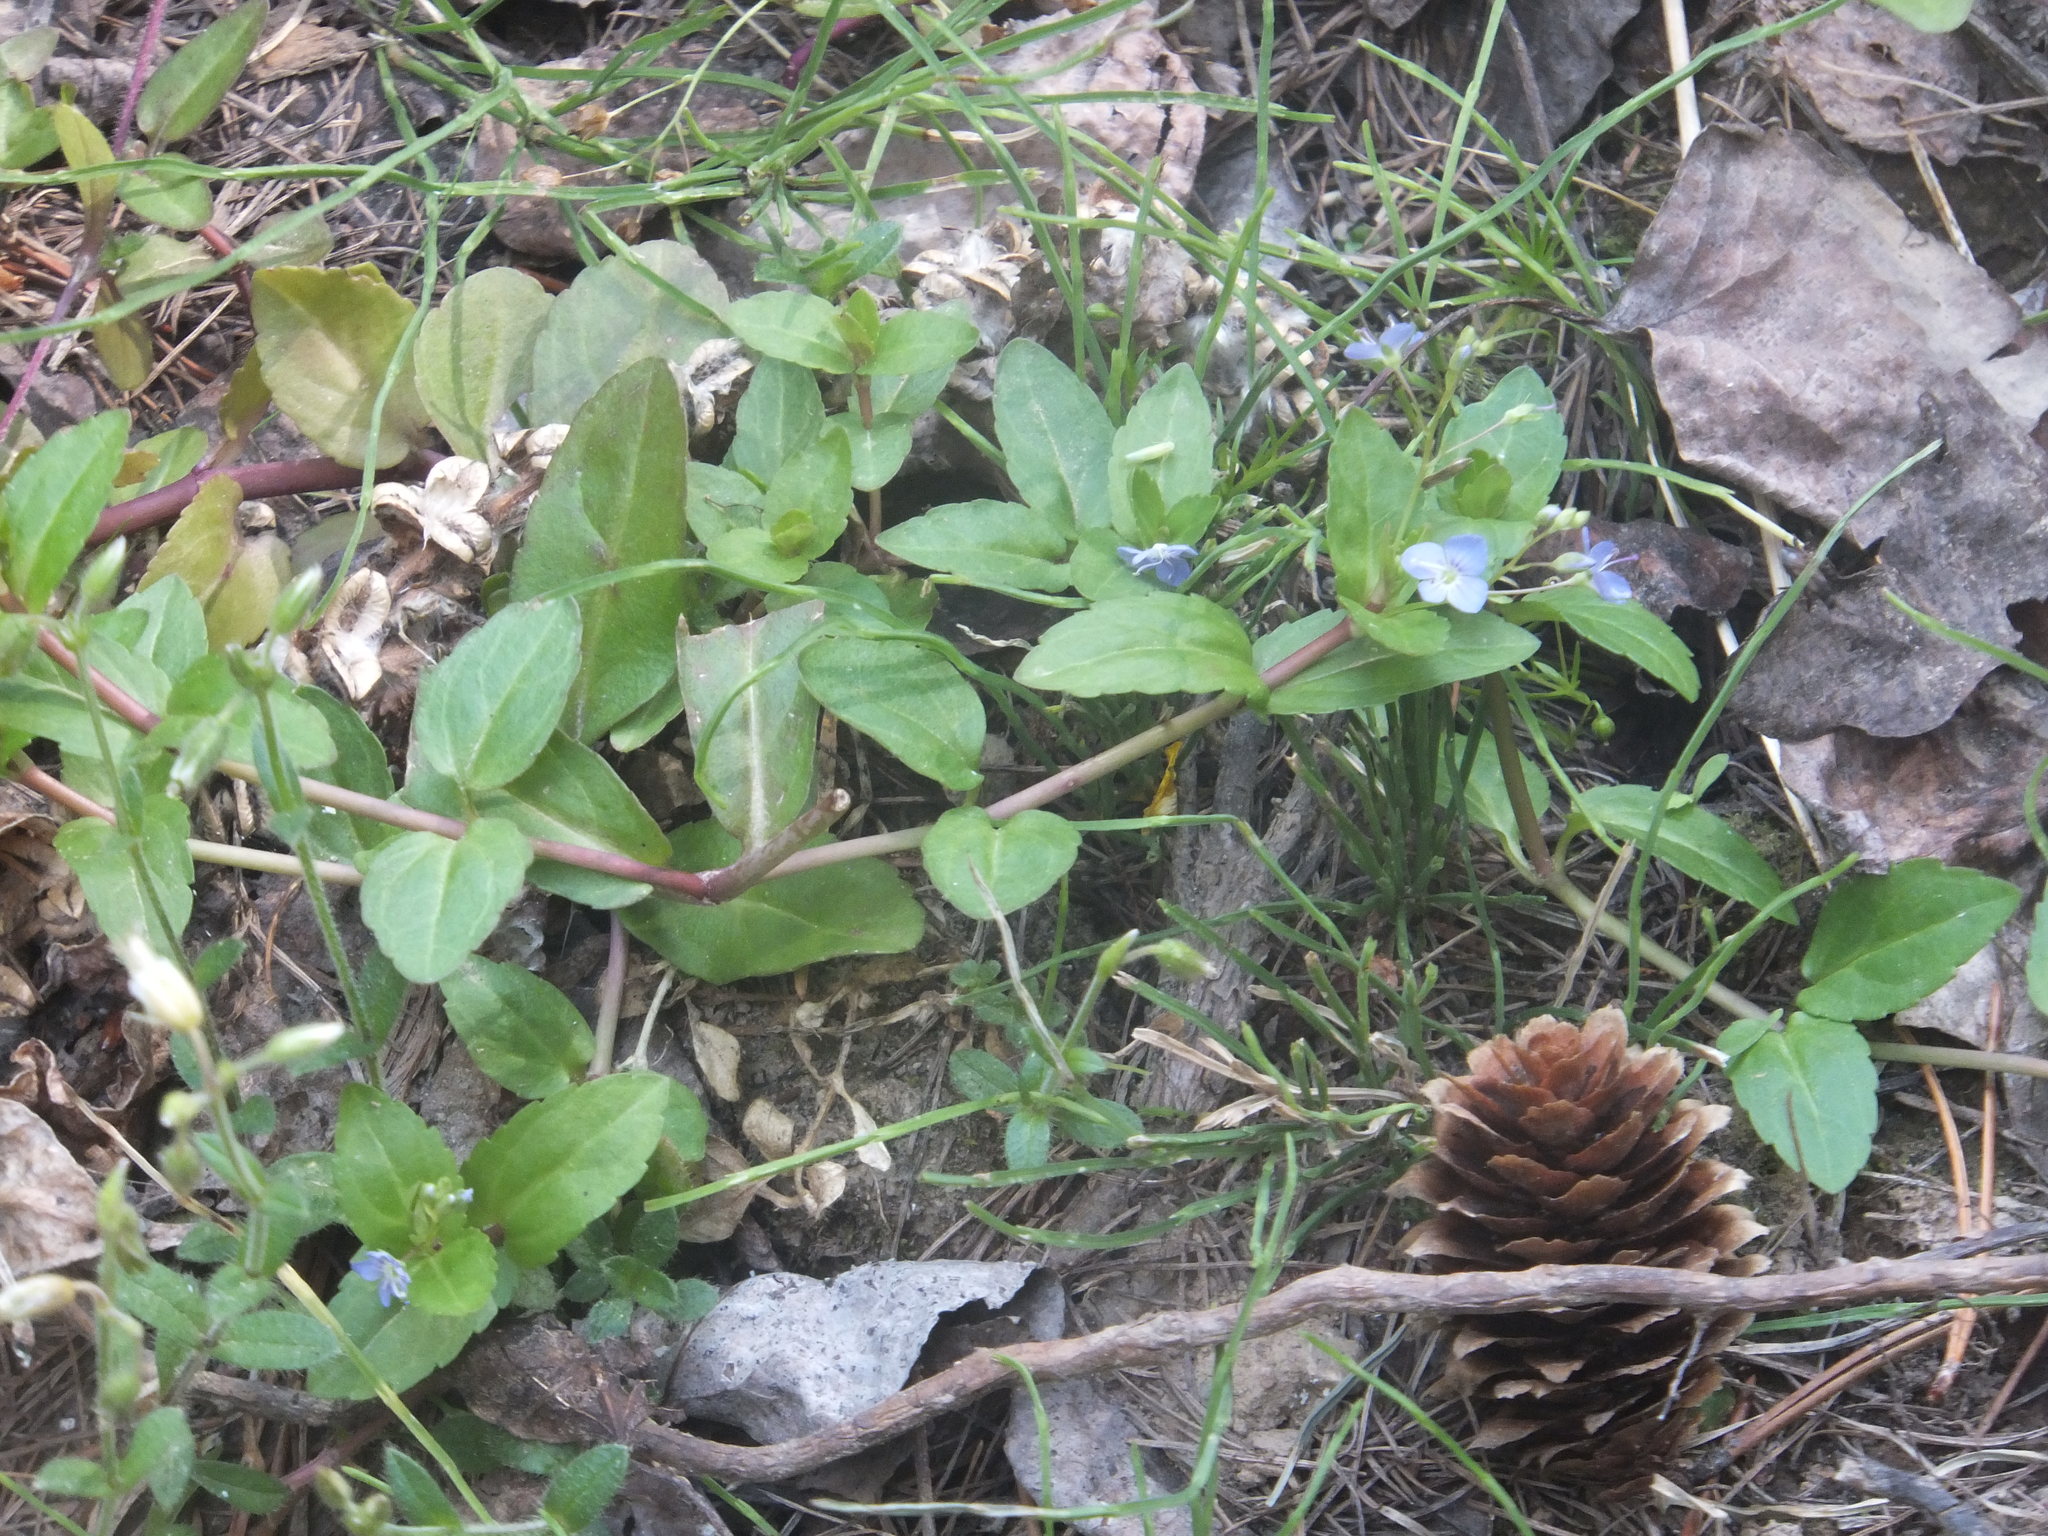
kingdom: Plantae
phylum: Tracheophyta
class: Magnoliopsida
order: Lamiales
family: Plantaginaceae
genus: Veronica
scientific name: Veronica americana
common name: American brooklime
